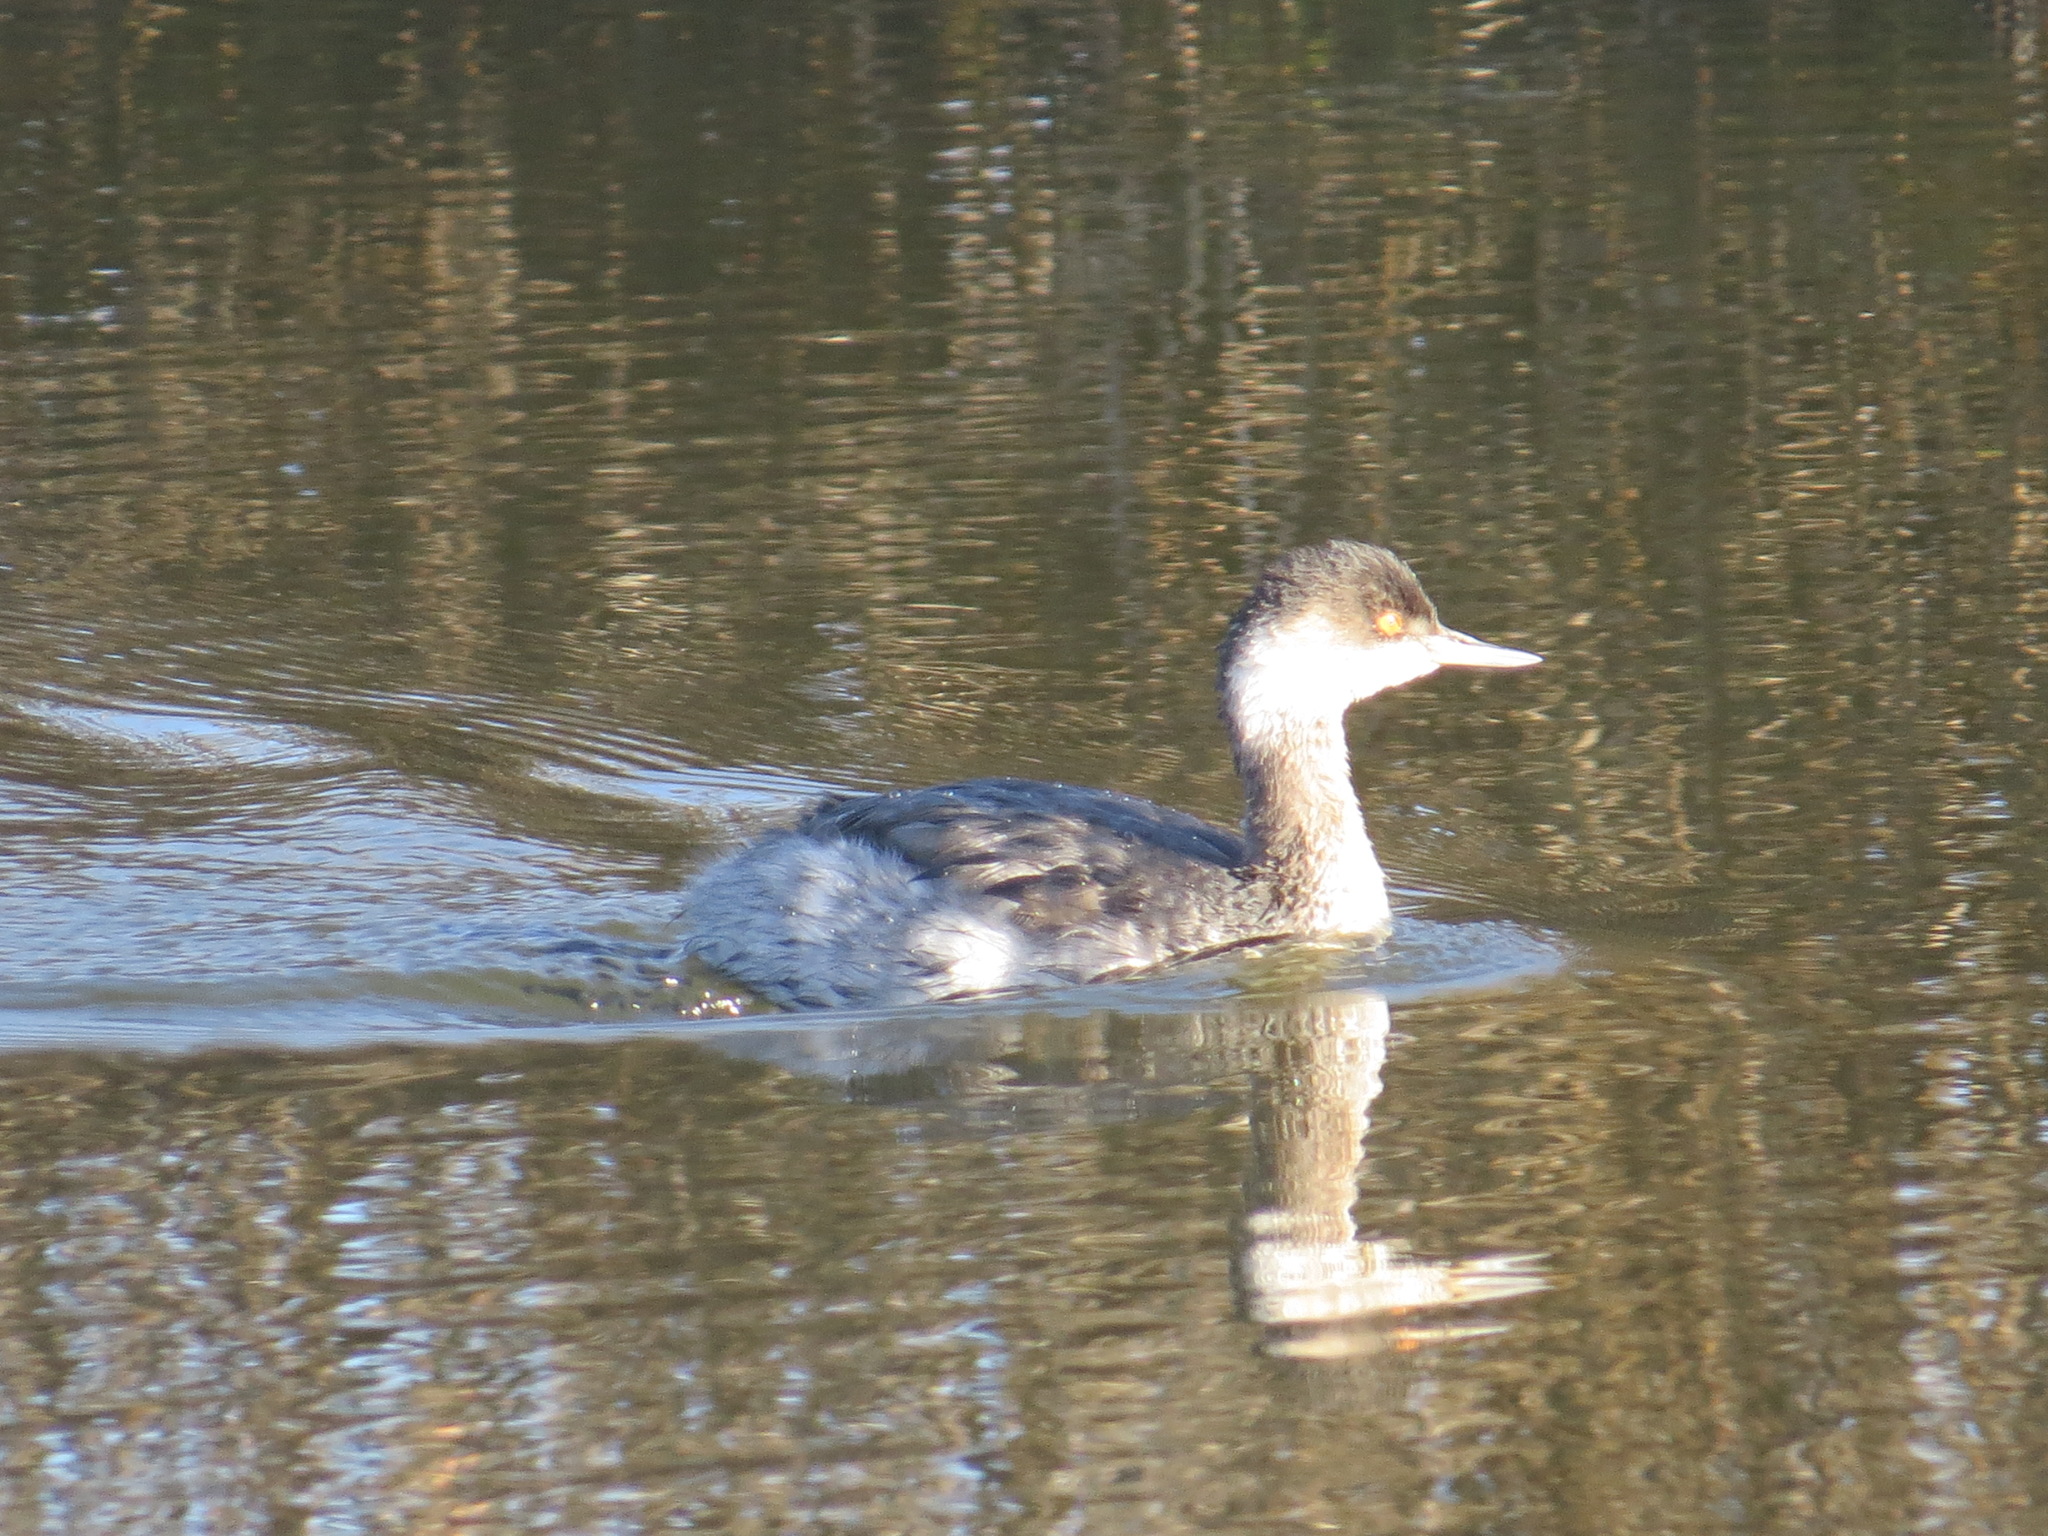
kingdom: Animalia
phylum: Chordata
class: Aves
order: Podicipediformes
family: Podicipedidae
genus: Podiceps
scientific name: Podiceps nigricollis
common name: Black-necked grebe
